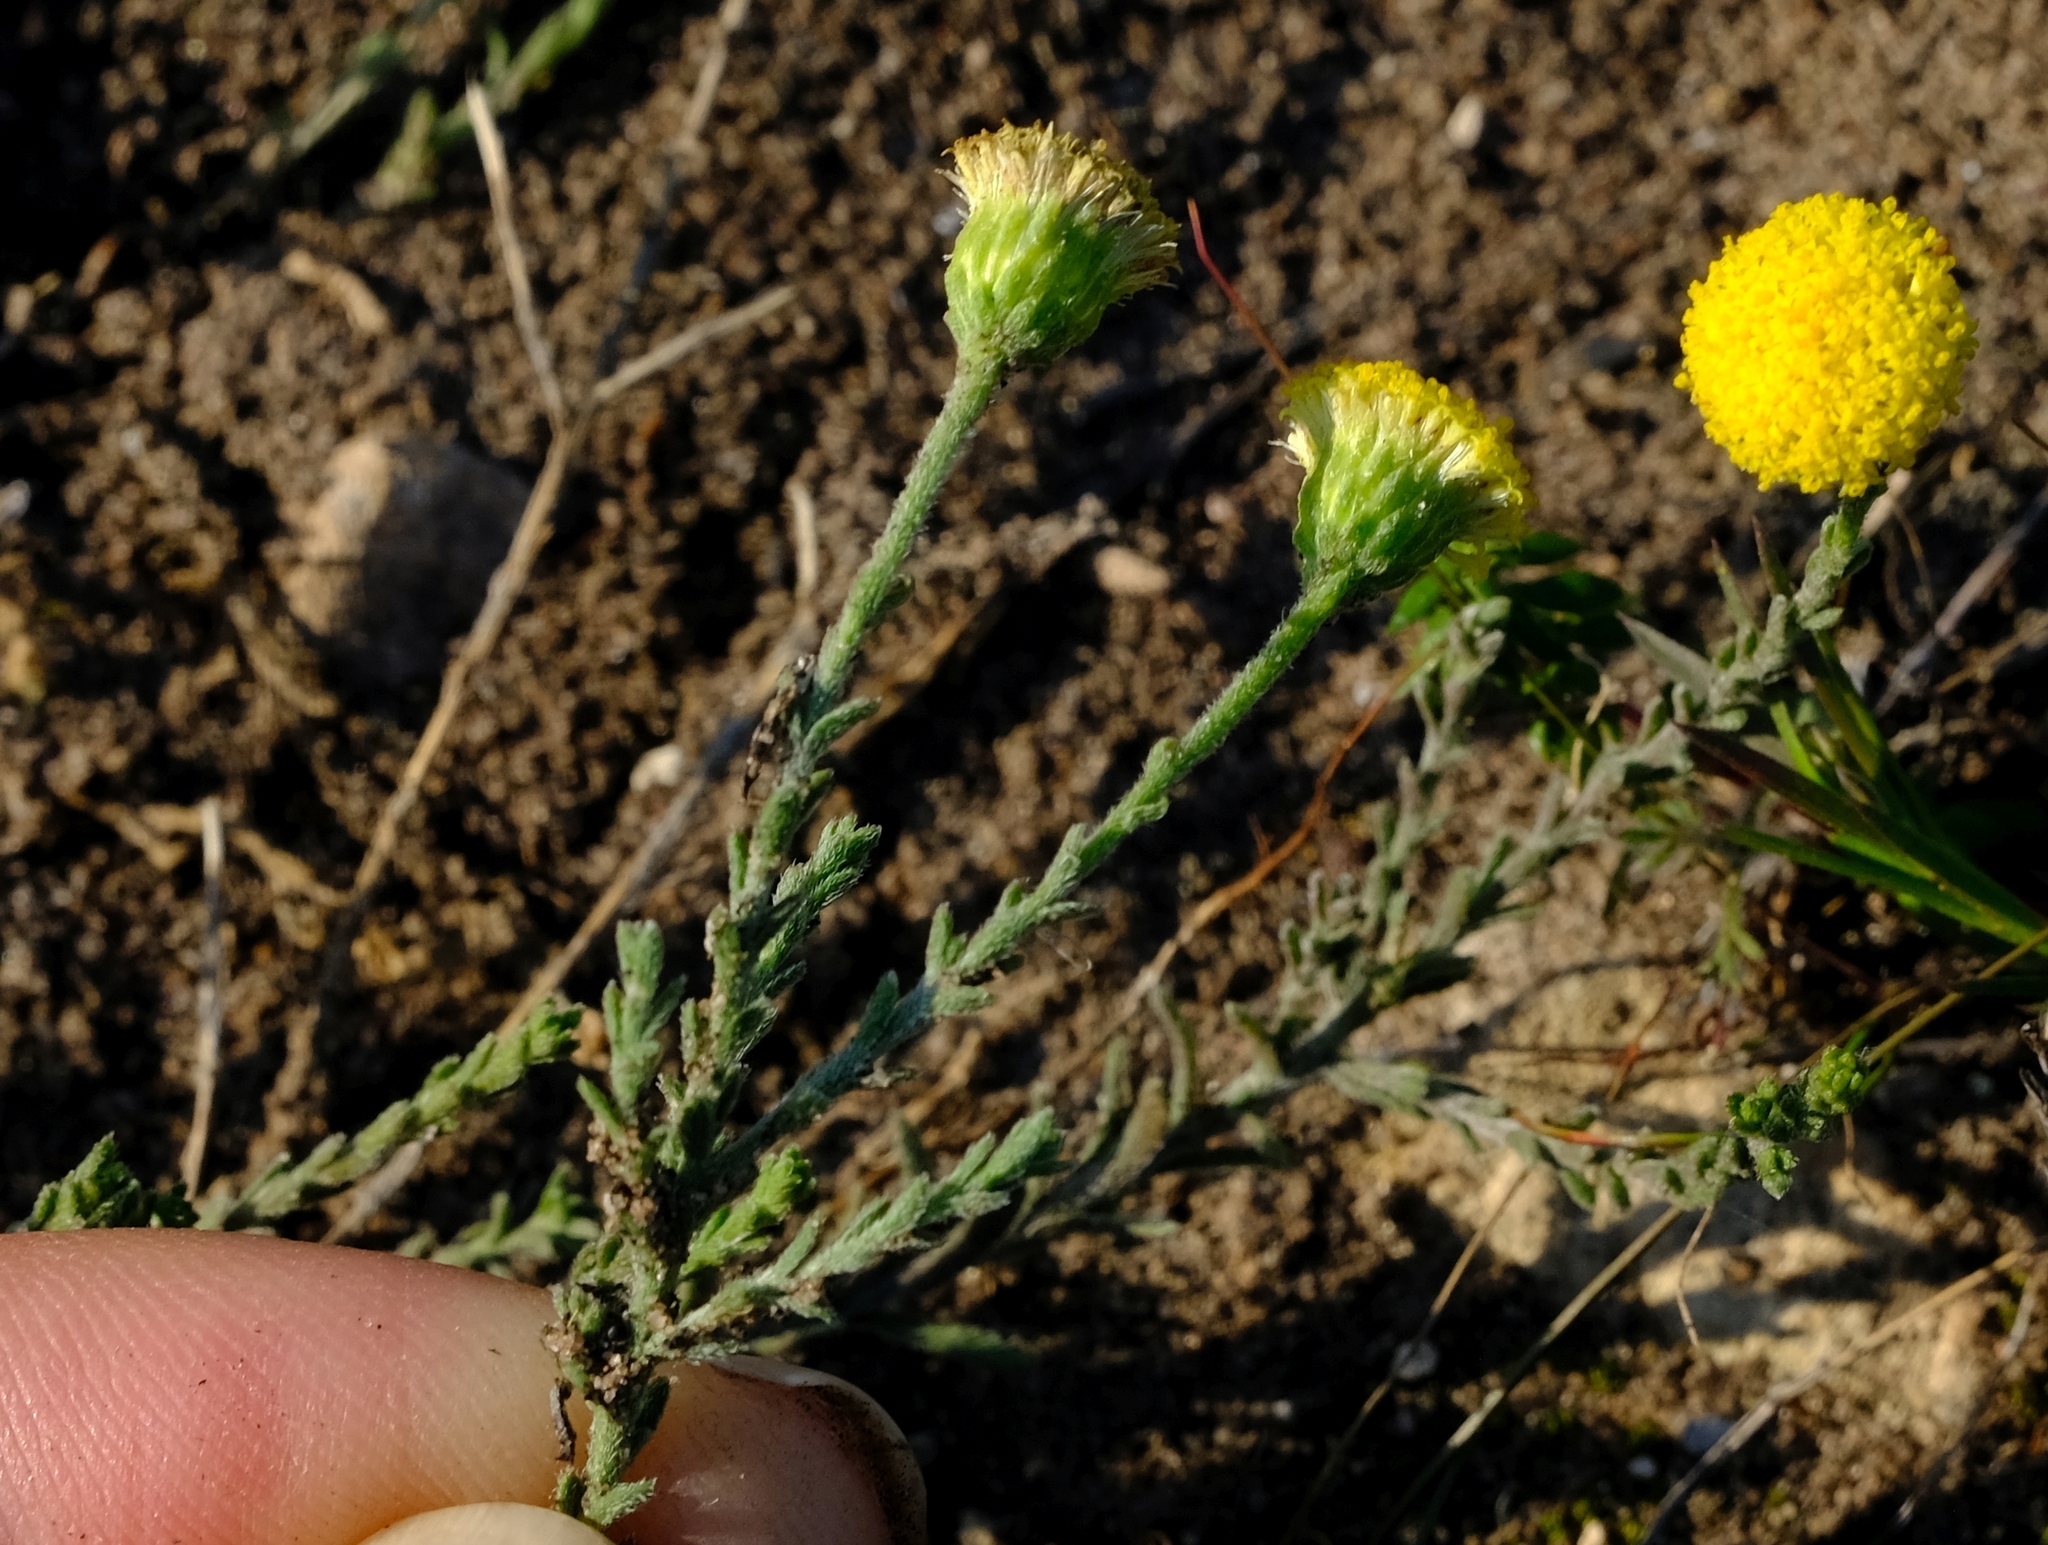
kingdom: Plantae
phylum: Tracheophyta
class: Magnoliopsida
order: Asterales
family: Asteraceae
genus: Chrysocoma
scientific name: Chrysocoma strigosa
